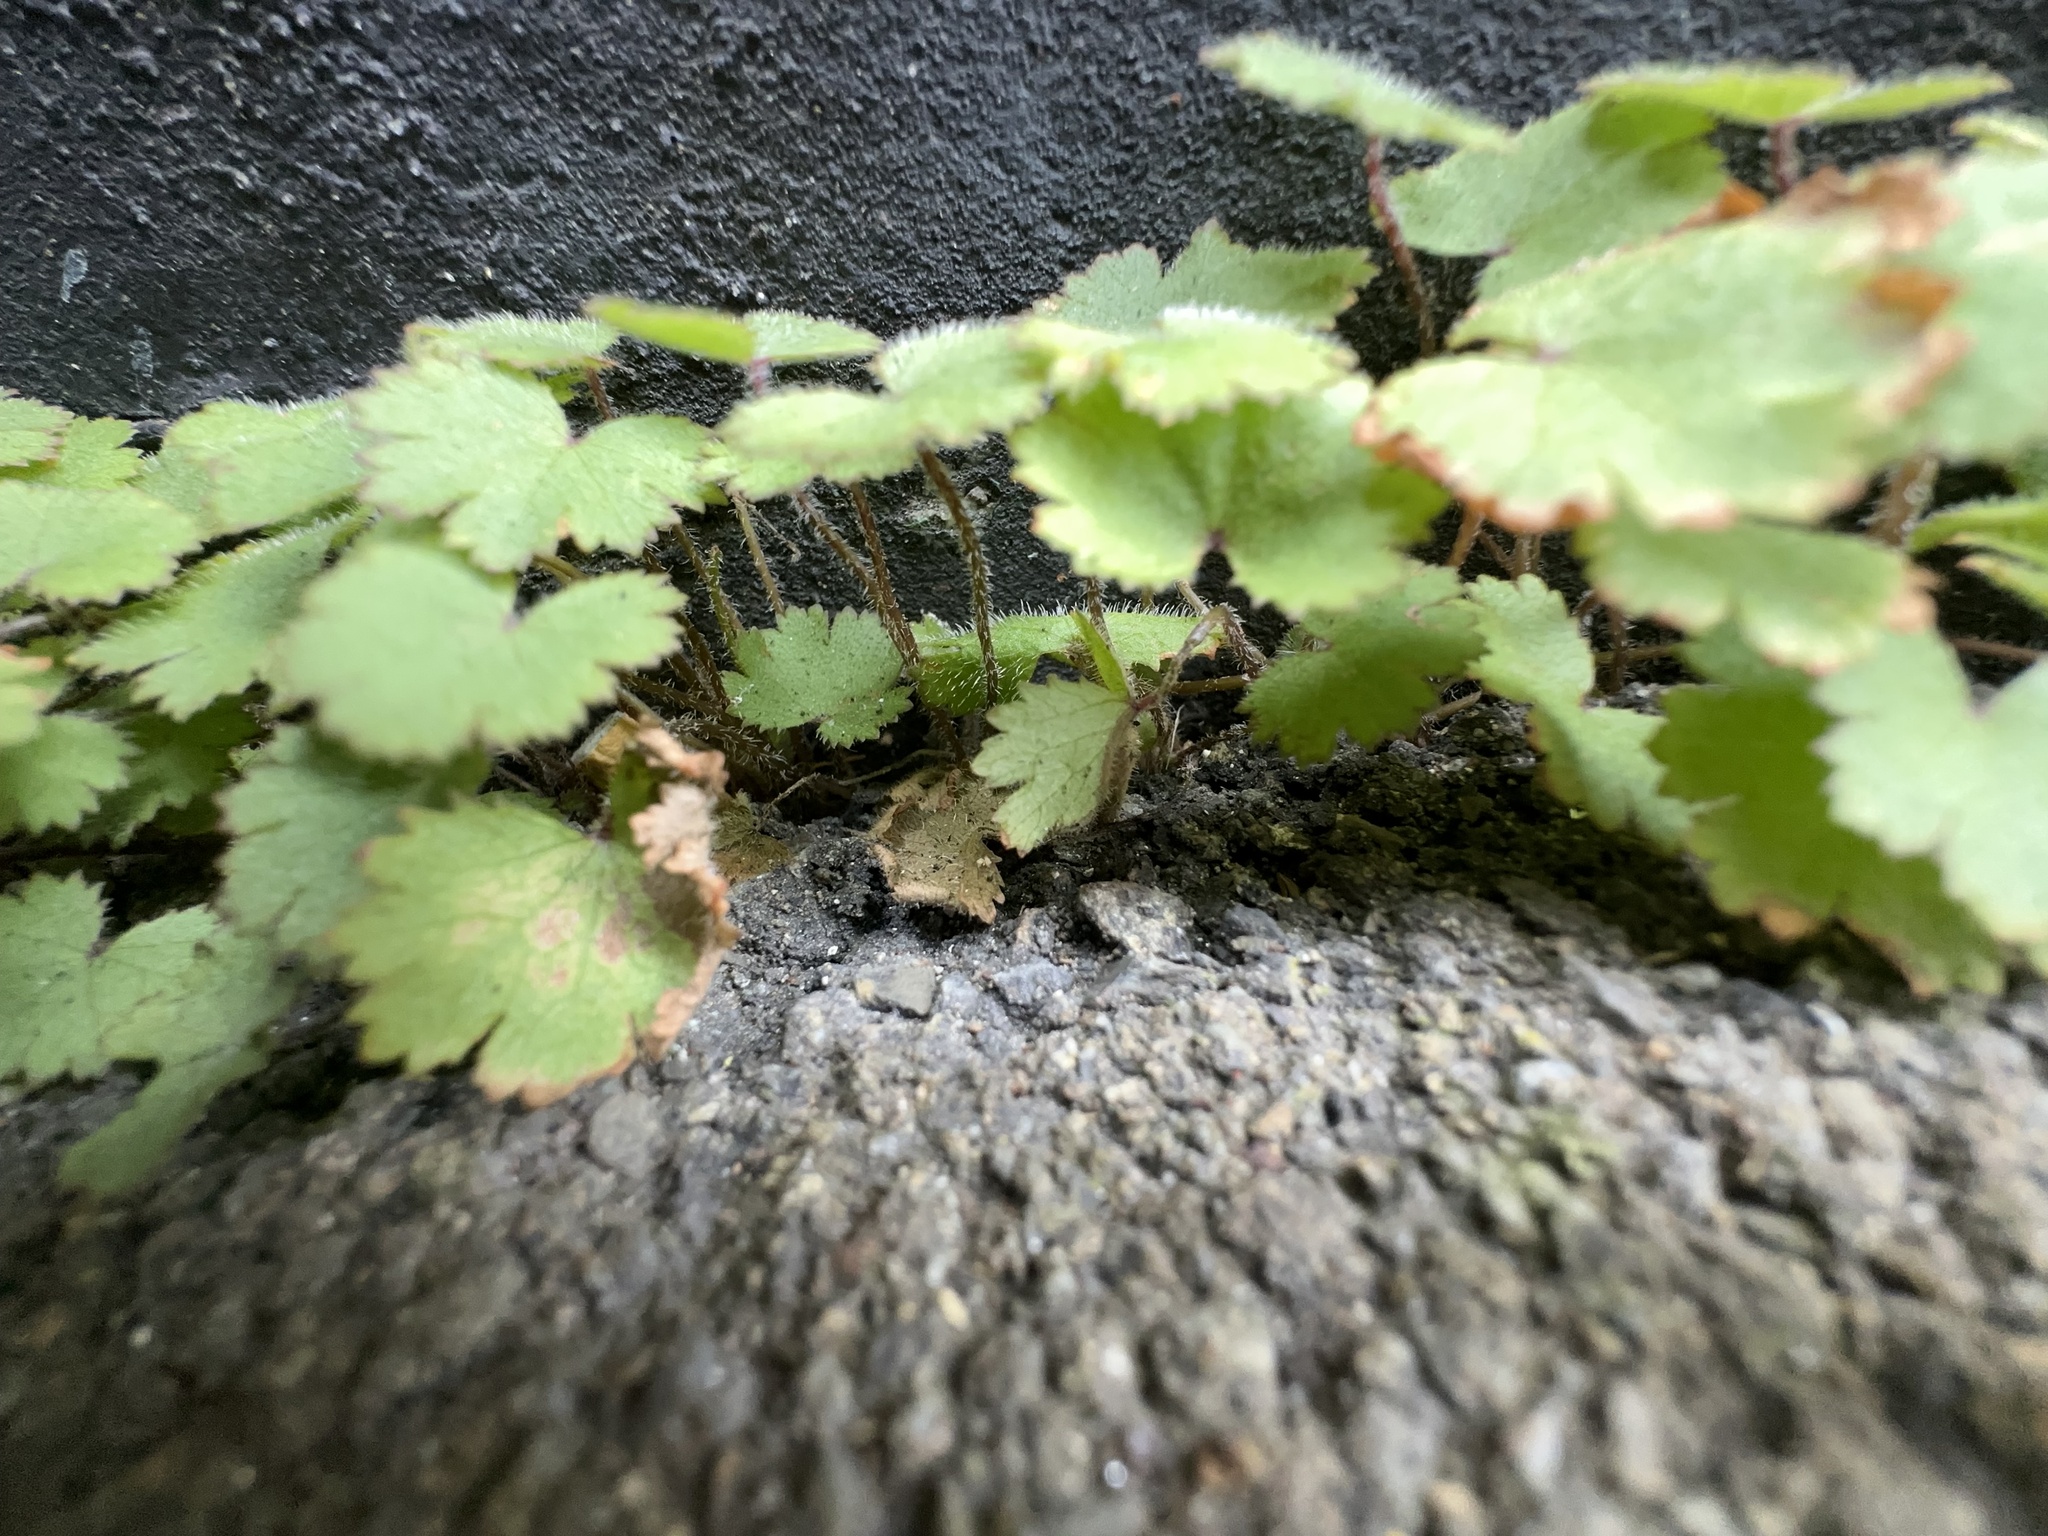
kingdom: Plantae
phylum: Tracheophyta
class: Magnoliopsida
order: Apiales
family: Araliaceae
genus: Hydrocotyle
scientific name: Hydrocotyle moschata
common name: Hairy pennywort
